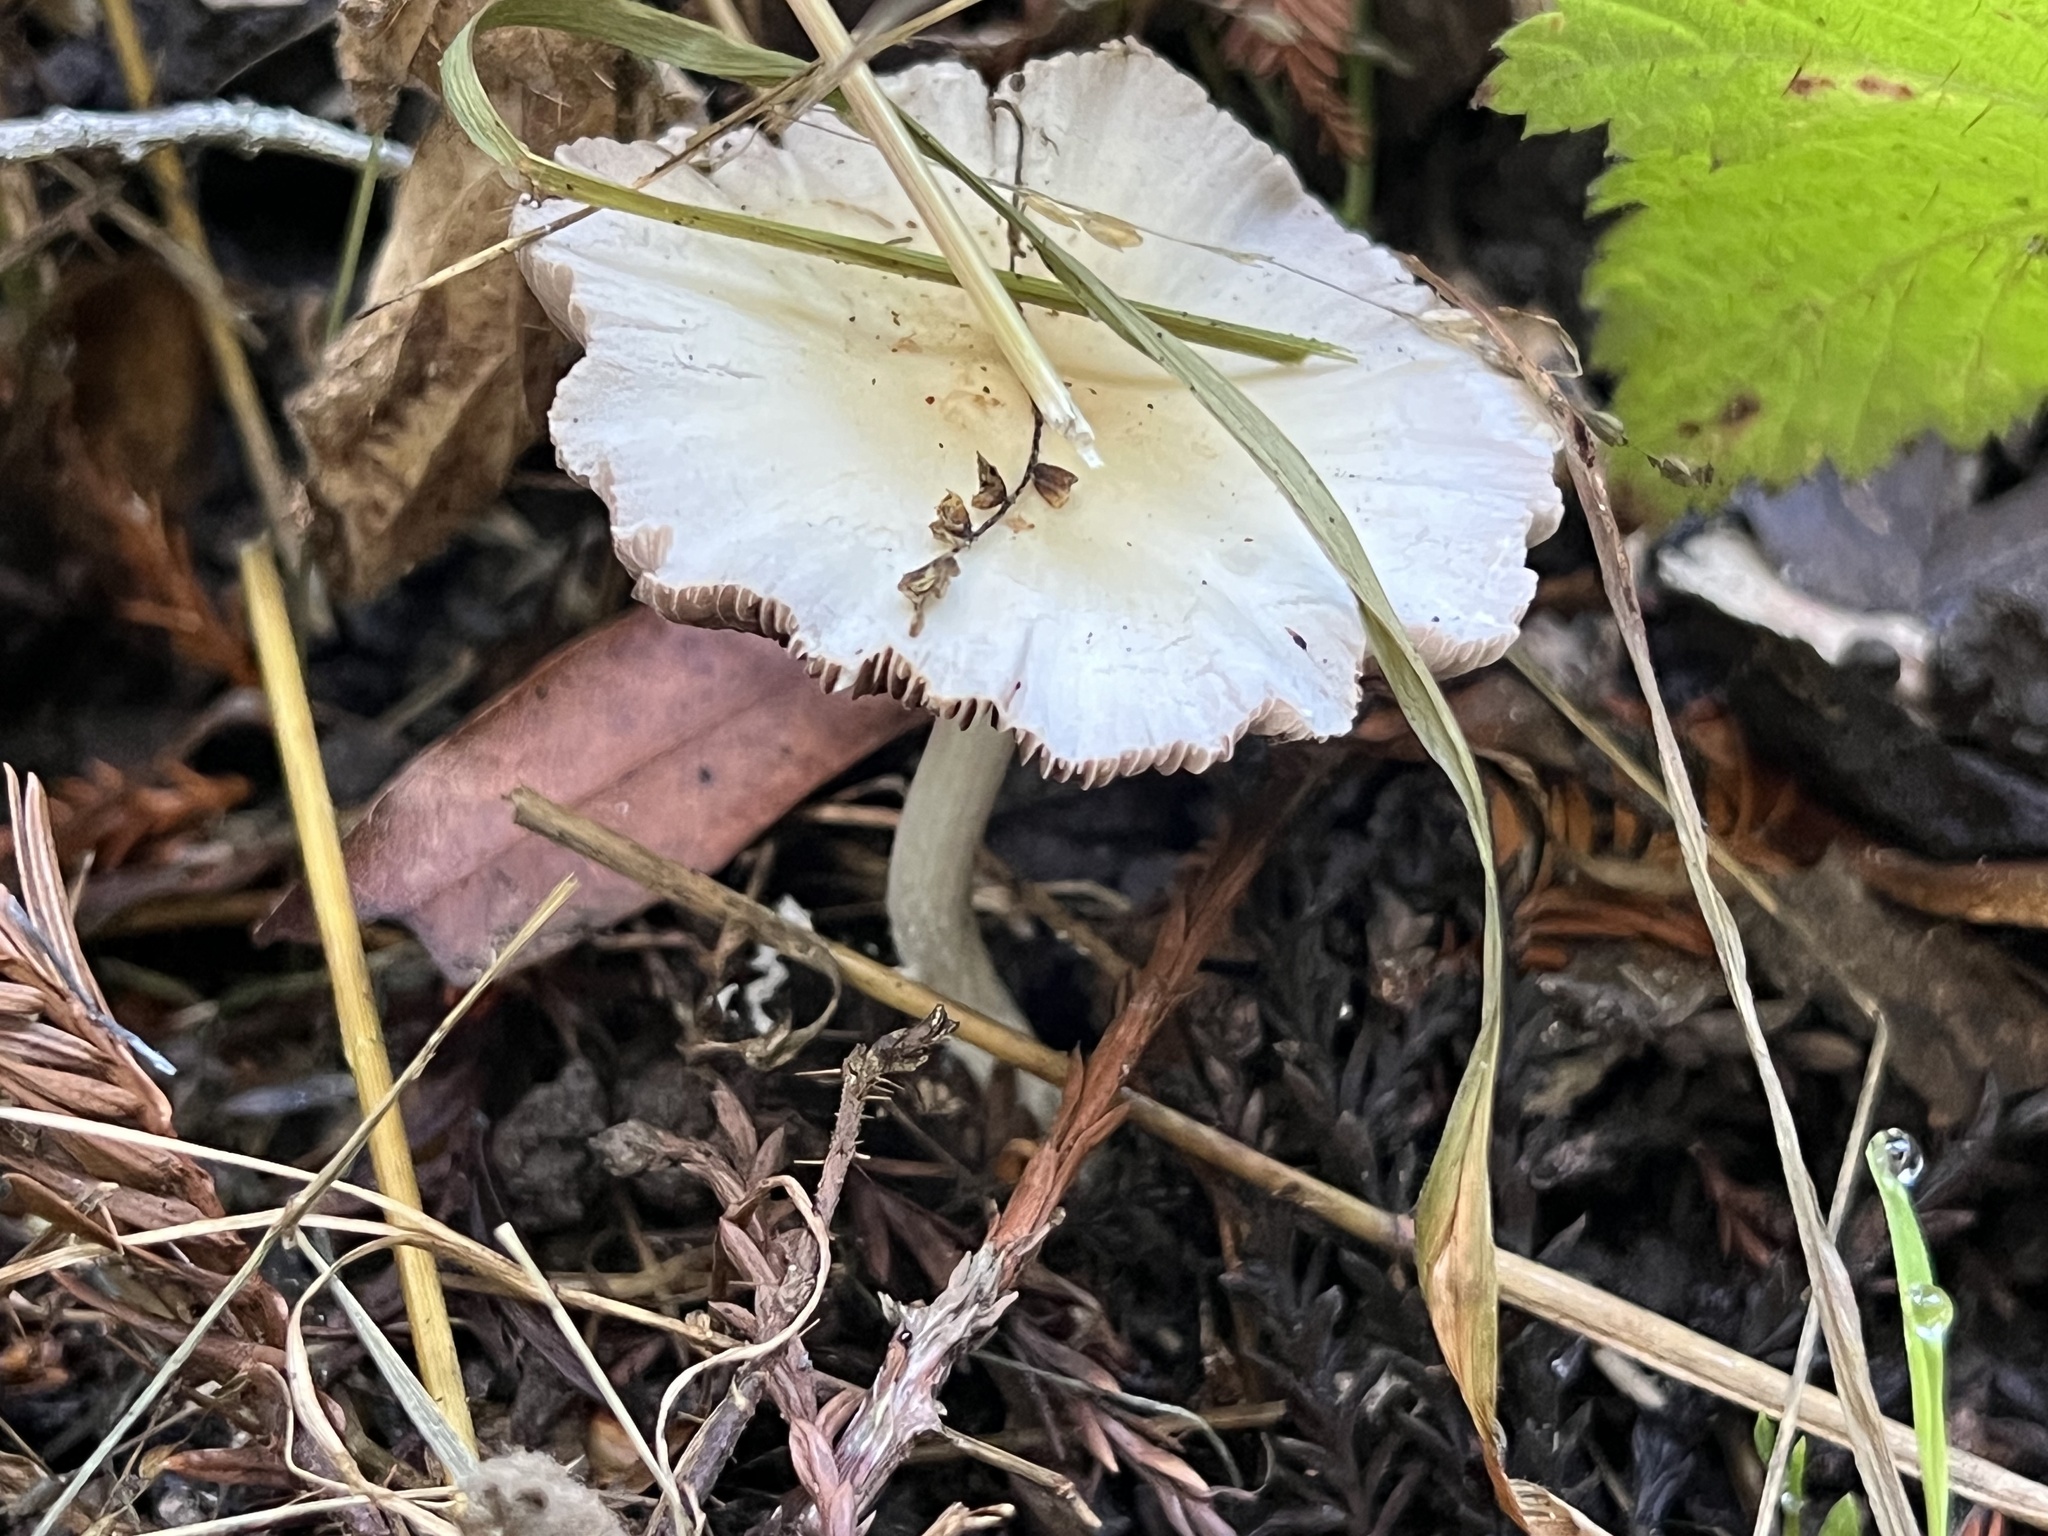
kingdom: Fungi
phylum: Basidiomycota
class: Agaricomycetes
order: Agaricales
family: Psathyrellaceae
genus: Candolleomyces
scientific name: Candolleomyces candolleanus
